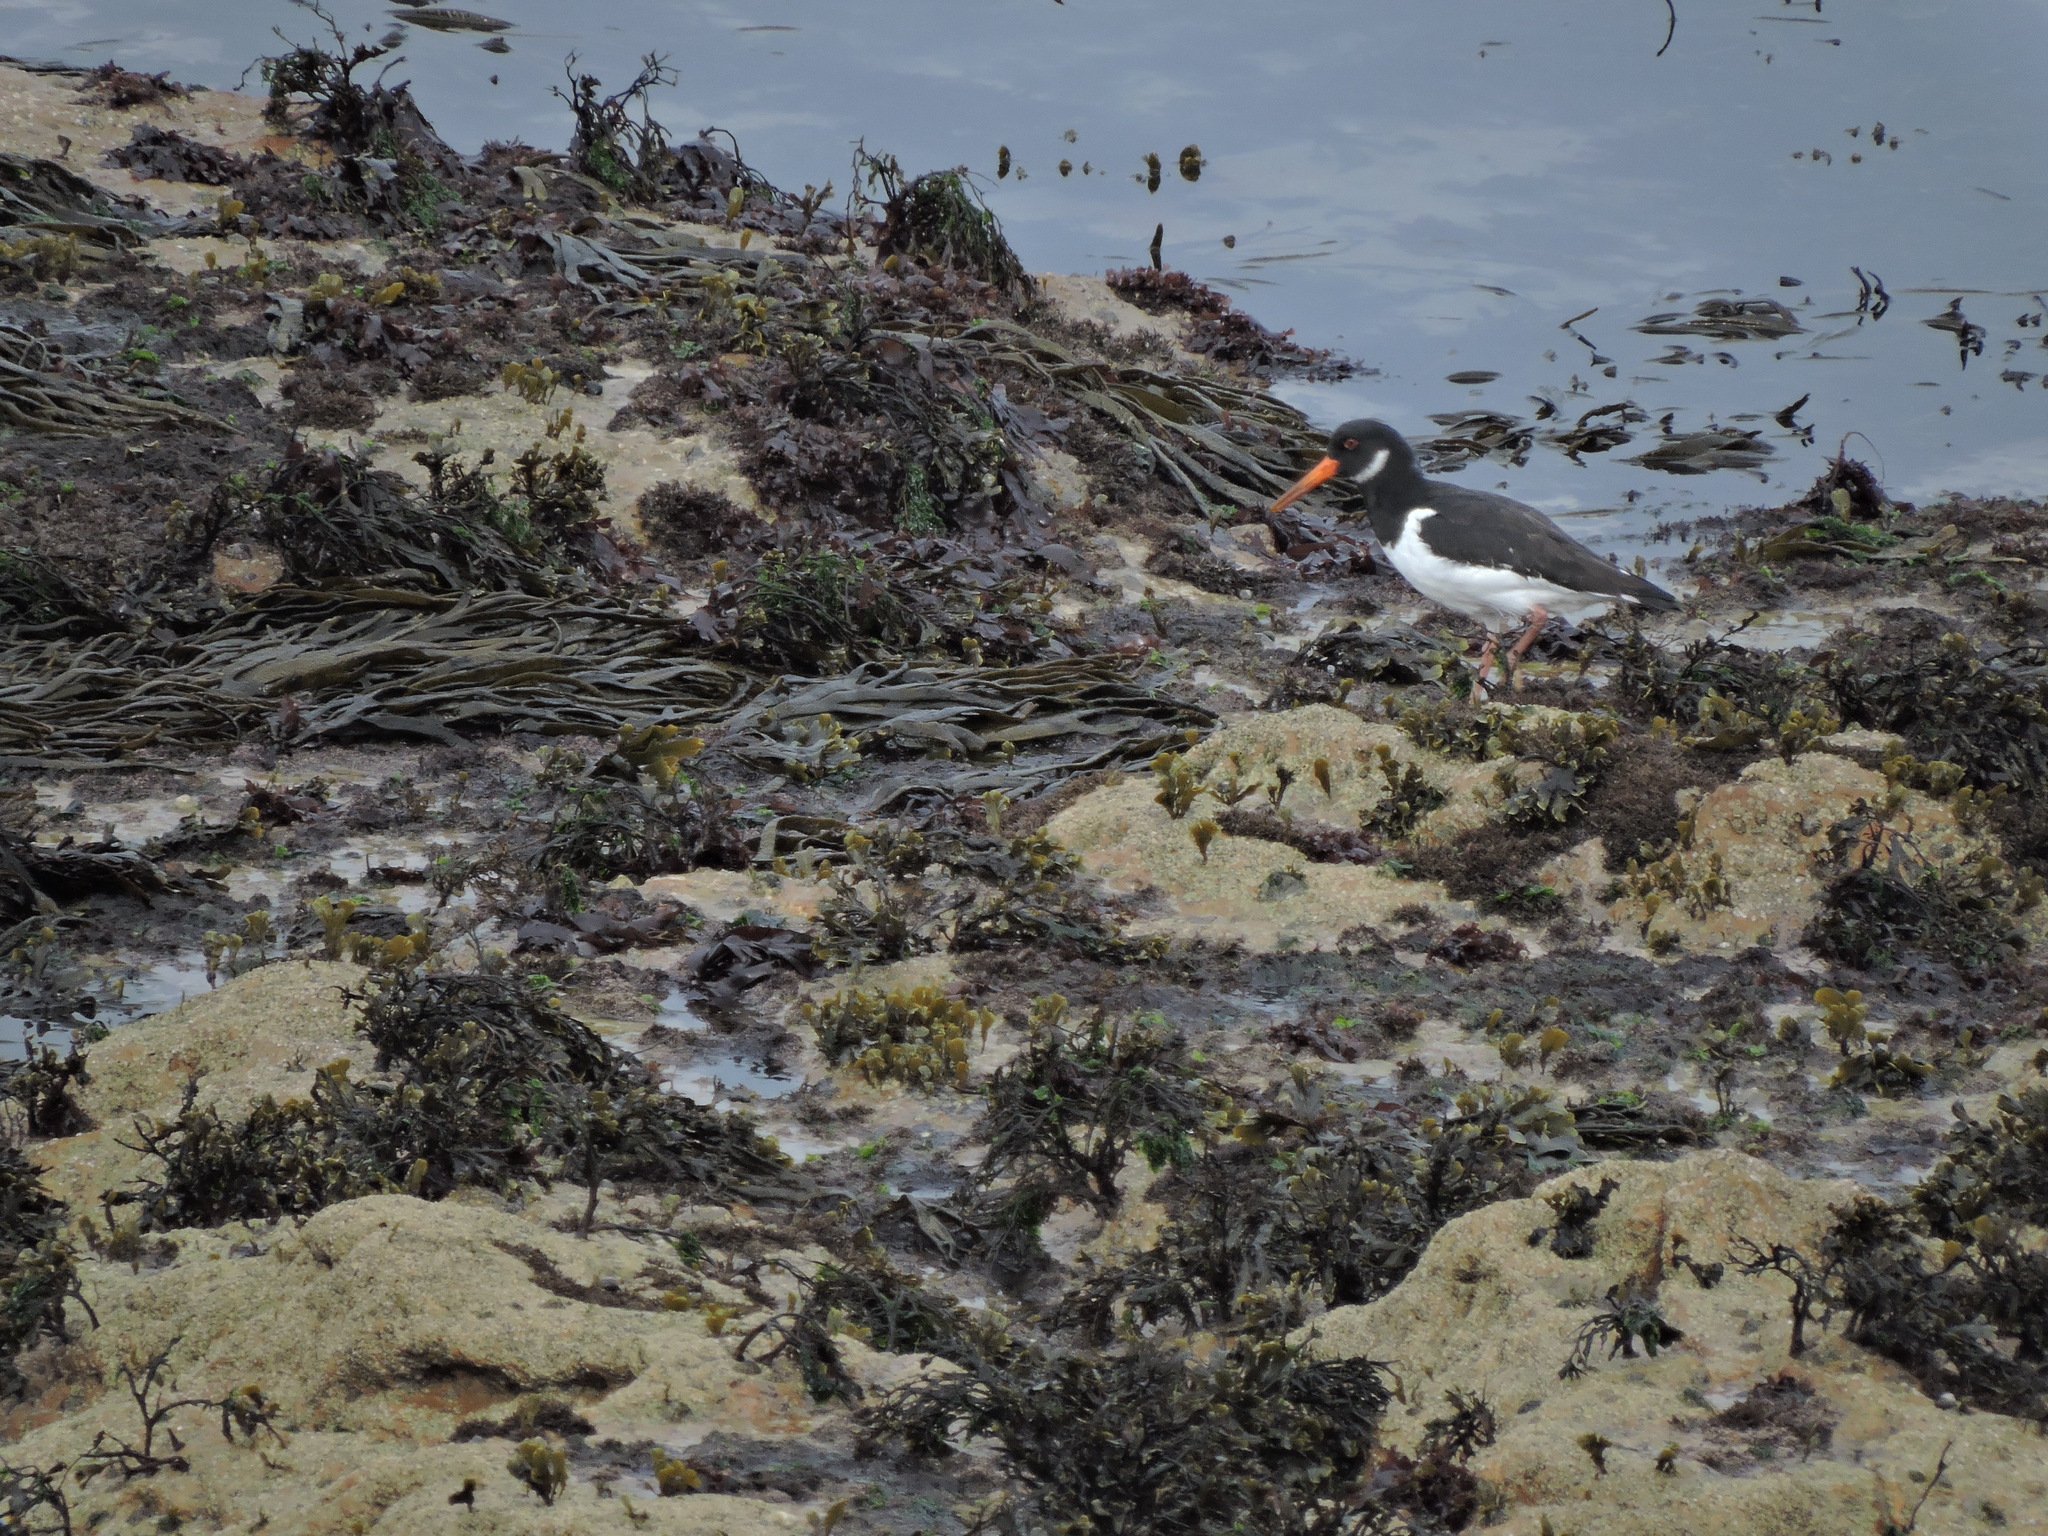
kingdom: Animalia
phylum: Chordata
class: Aves
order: Charadriiformes
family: Haematopodidae
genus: Haematopus
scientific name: Haematopus ostralegus
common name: Eurasian oystercatcher
